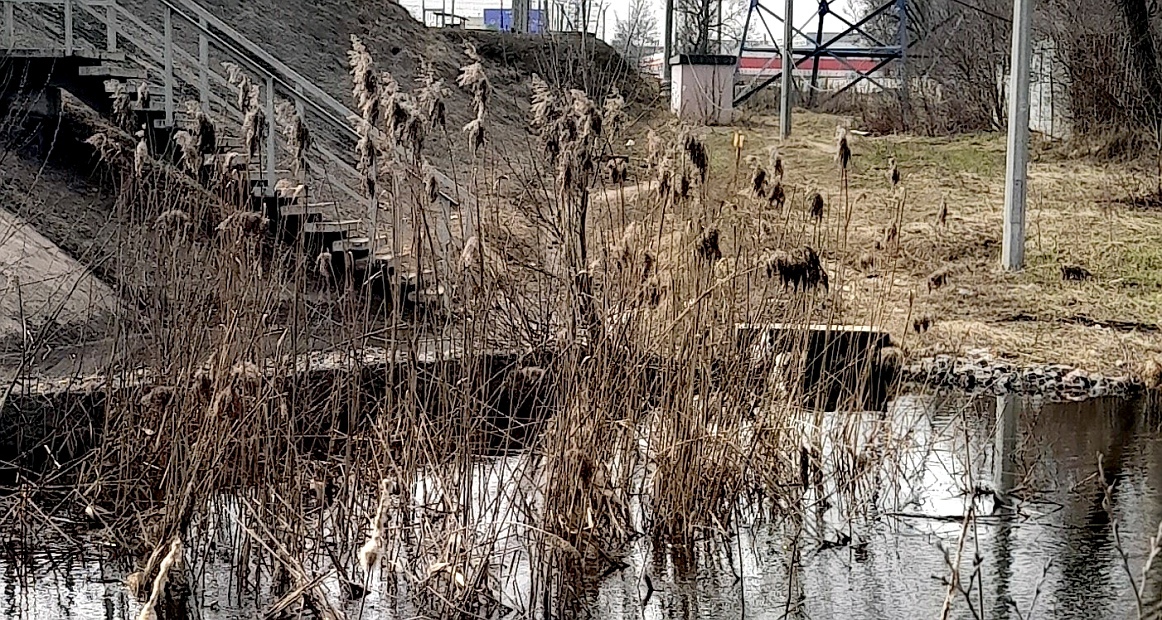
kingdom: Plantae
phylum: Tracheophyta
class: Liliopsida
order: Poales
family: Poaceae
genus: Phragmites
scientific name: Phragmites australis
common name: Common reed
